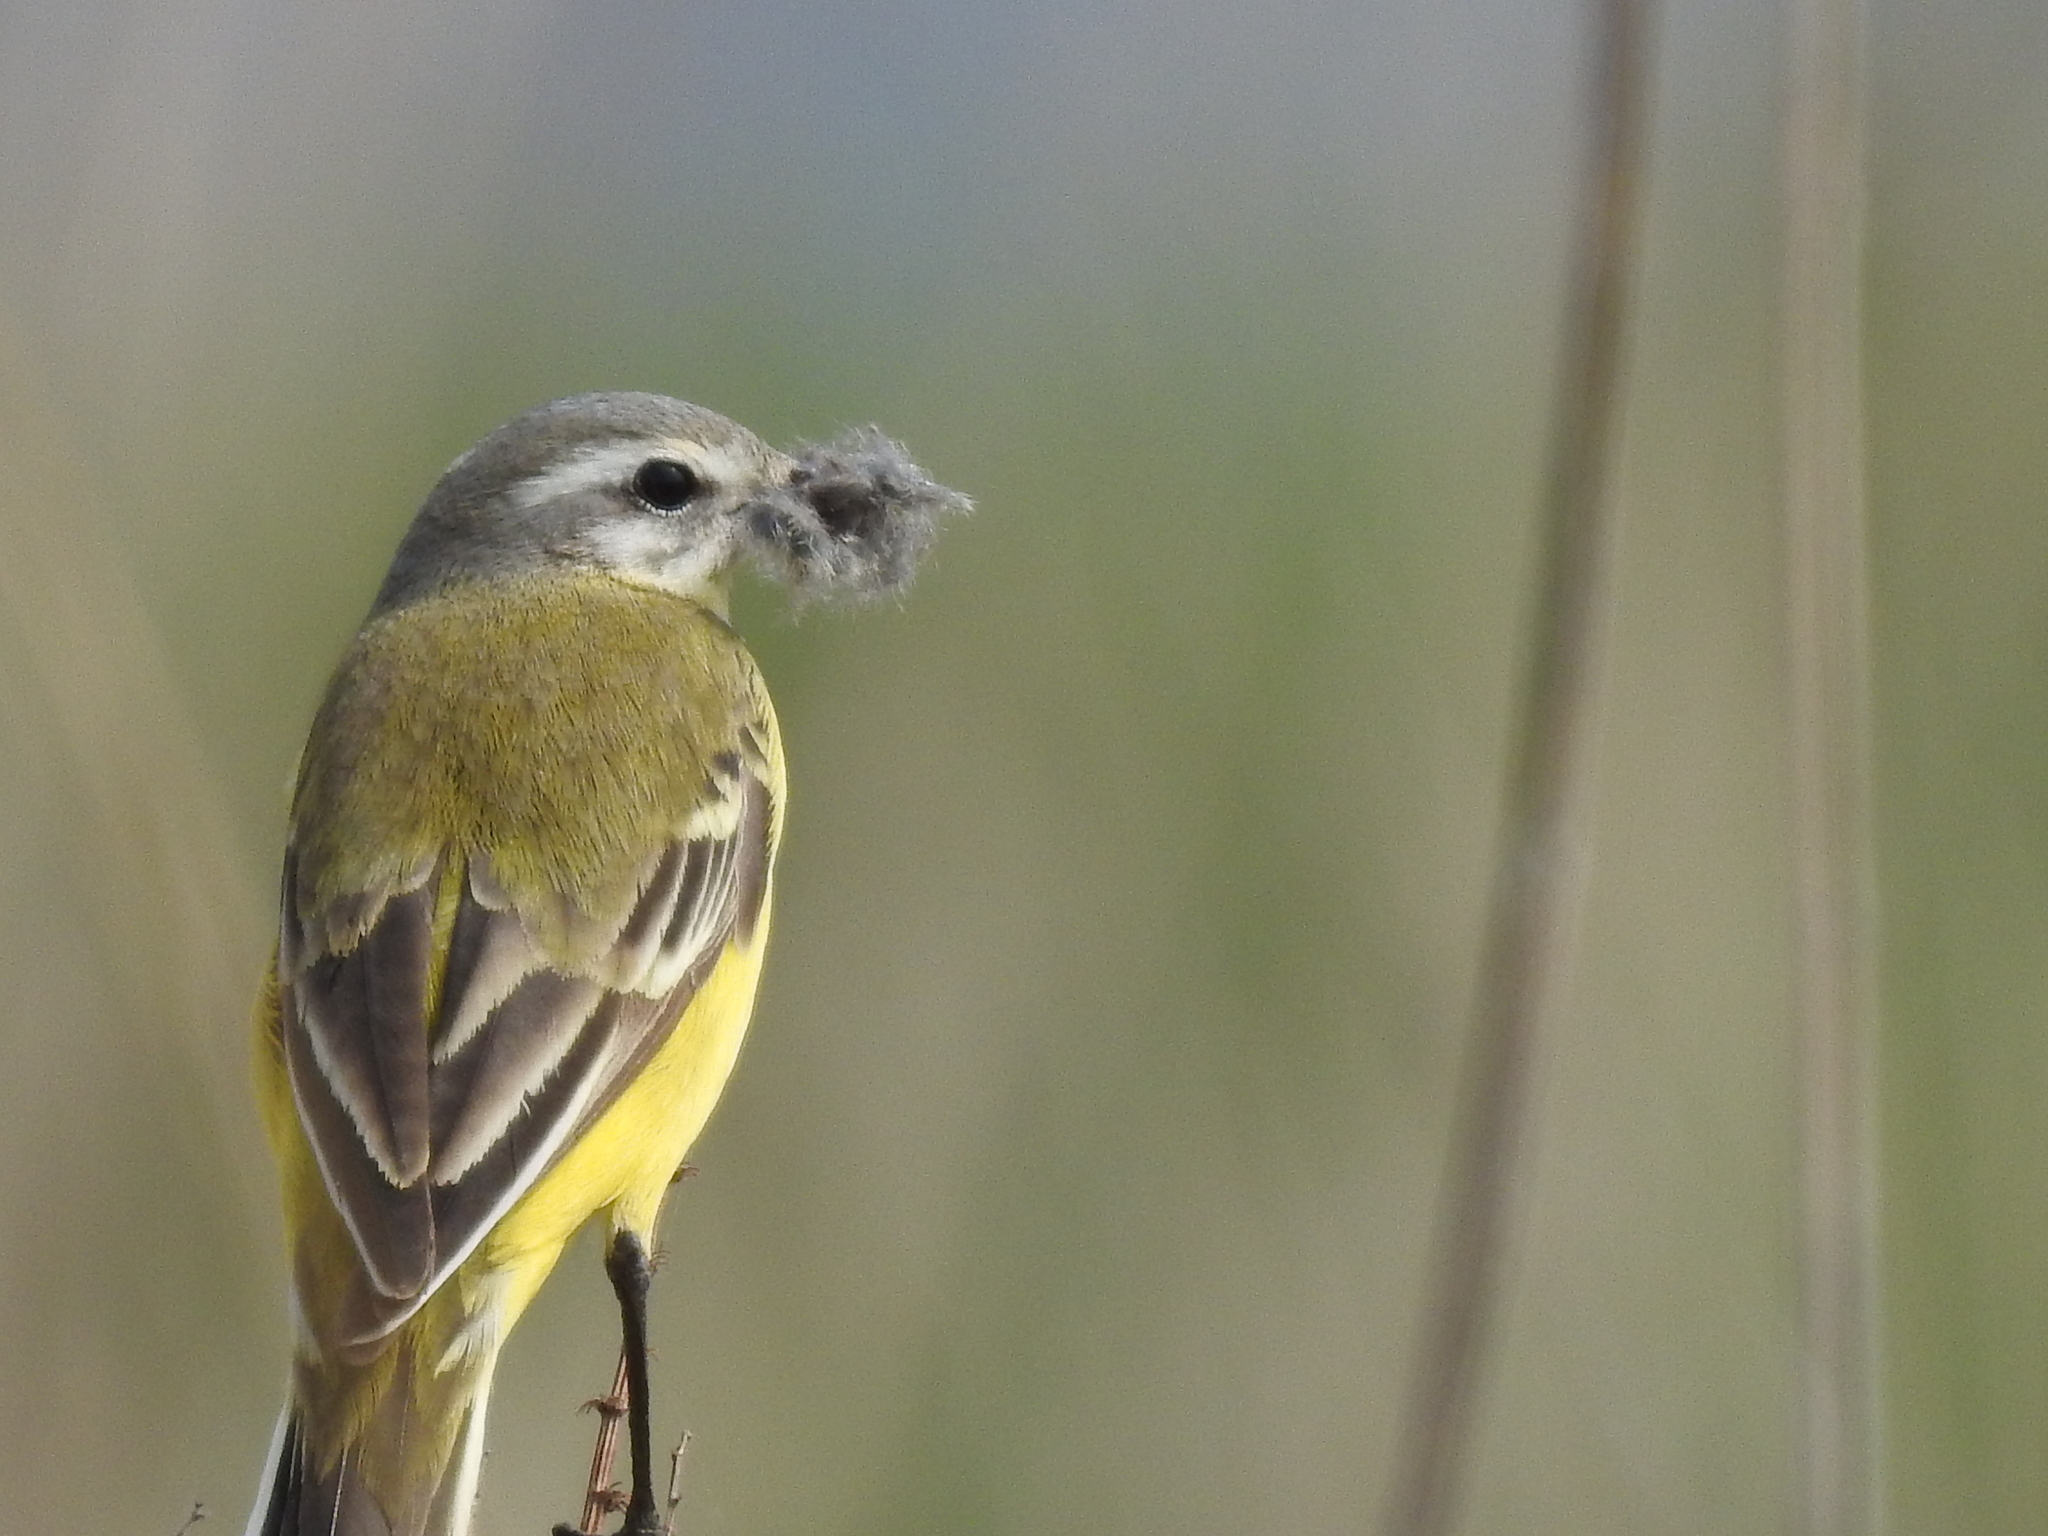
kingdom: Animalia
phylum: Chordata
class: Aves
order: Passeriformes
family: Motacillidae
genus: Motacilla
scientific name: Motacilla flava
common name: Western yellow wagtail
